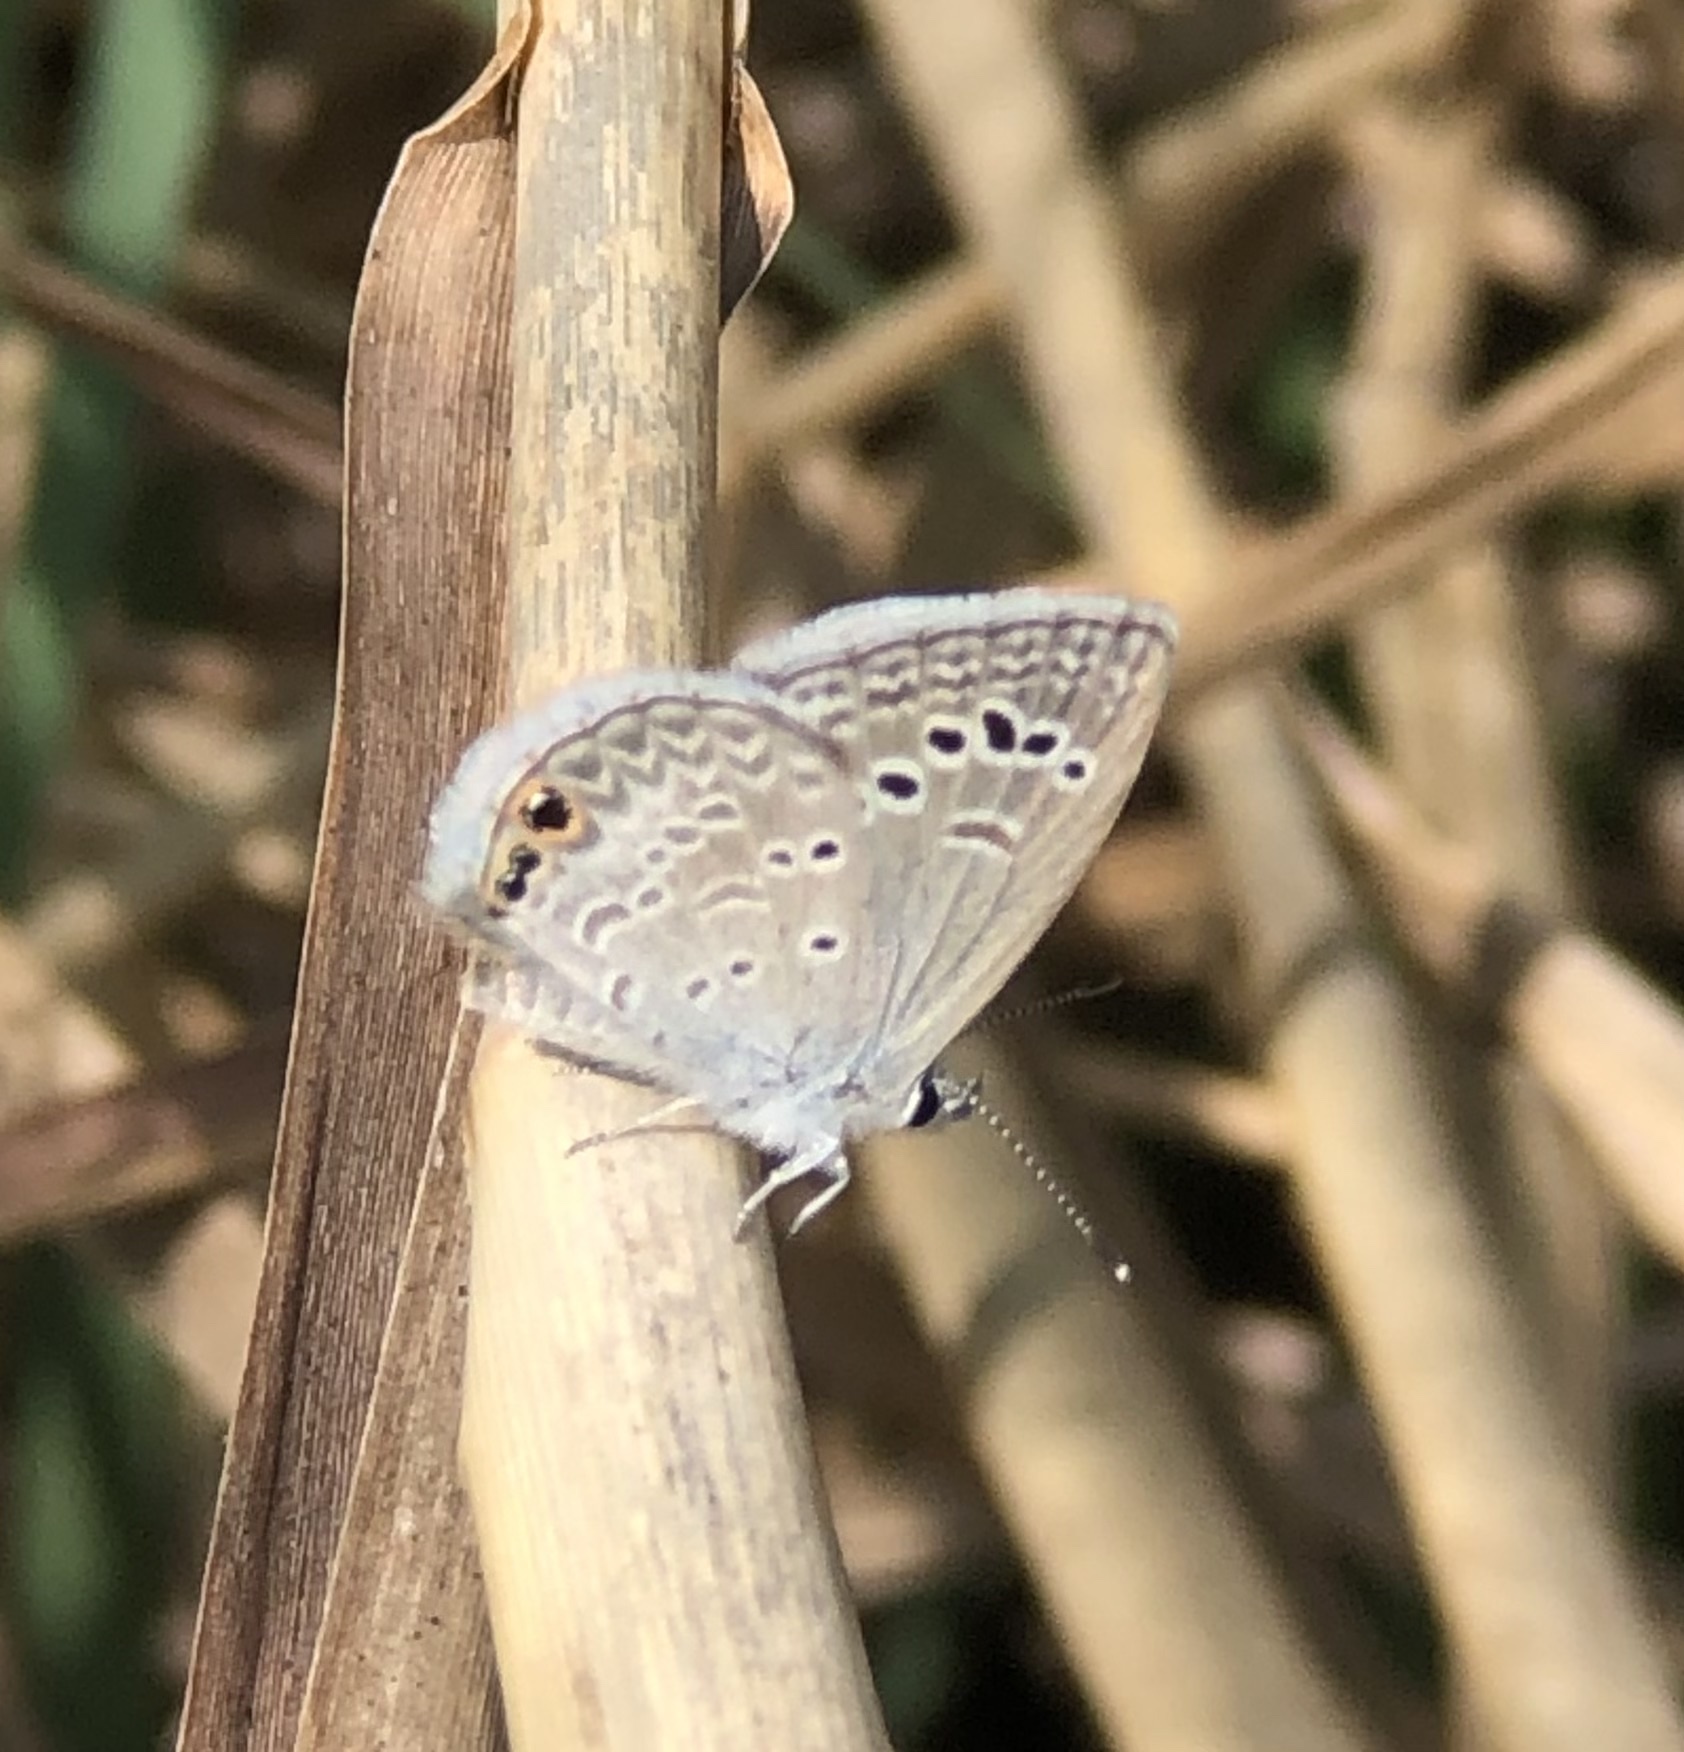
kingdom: Animalia
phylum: Arthropoda
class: Insecta
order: Lepidoptera
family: Lycaenidae
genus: Echinargus
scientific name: Echinargus isola
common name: Reakirt's blue
